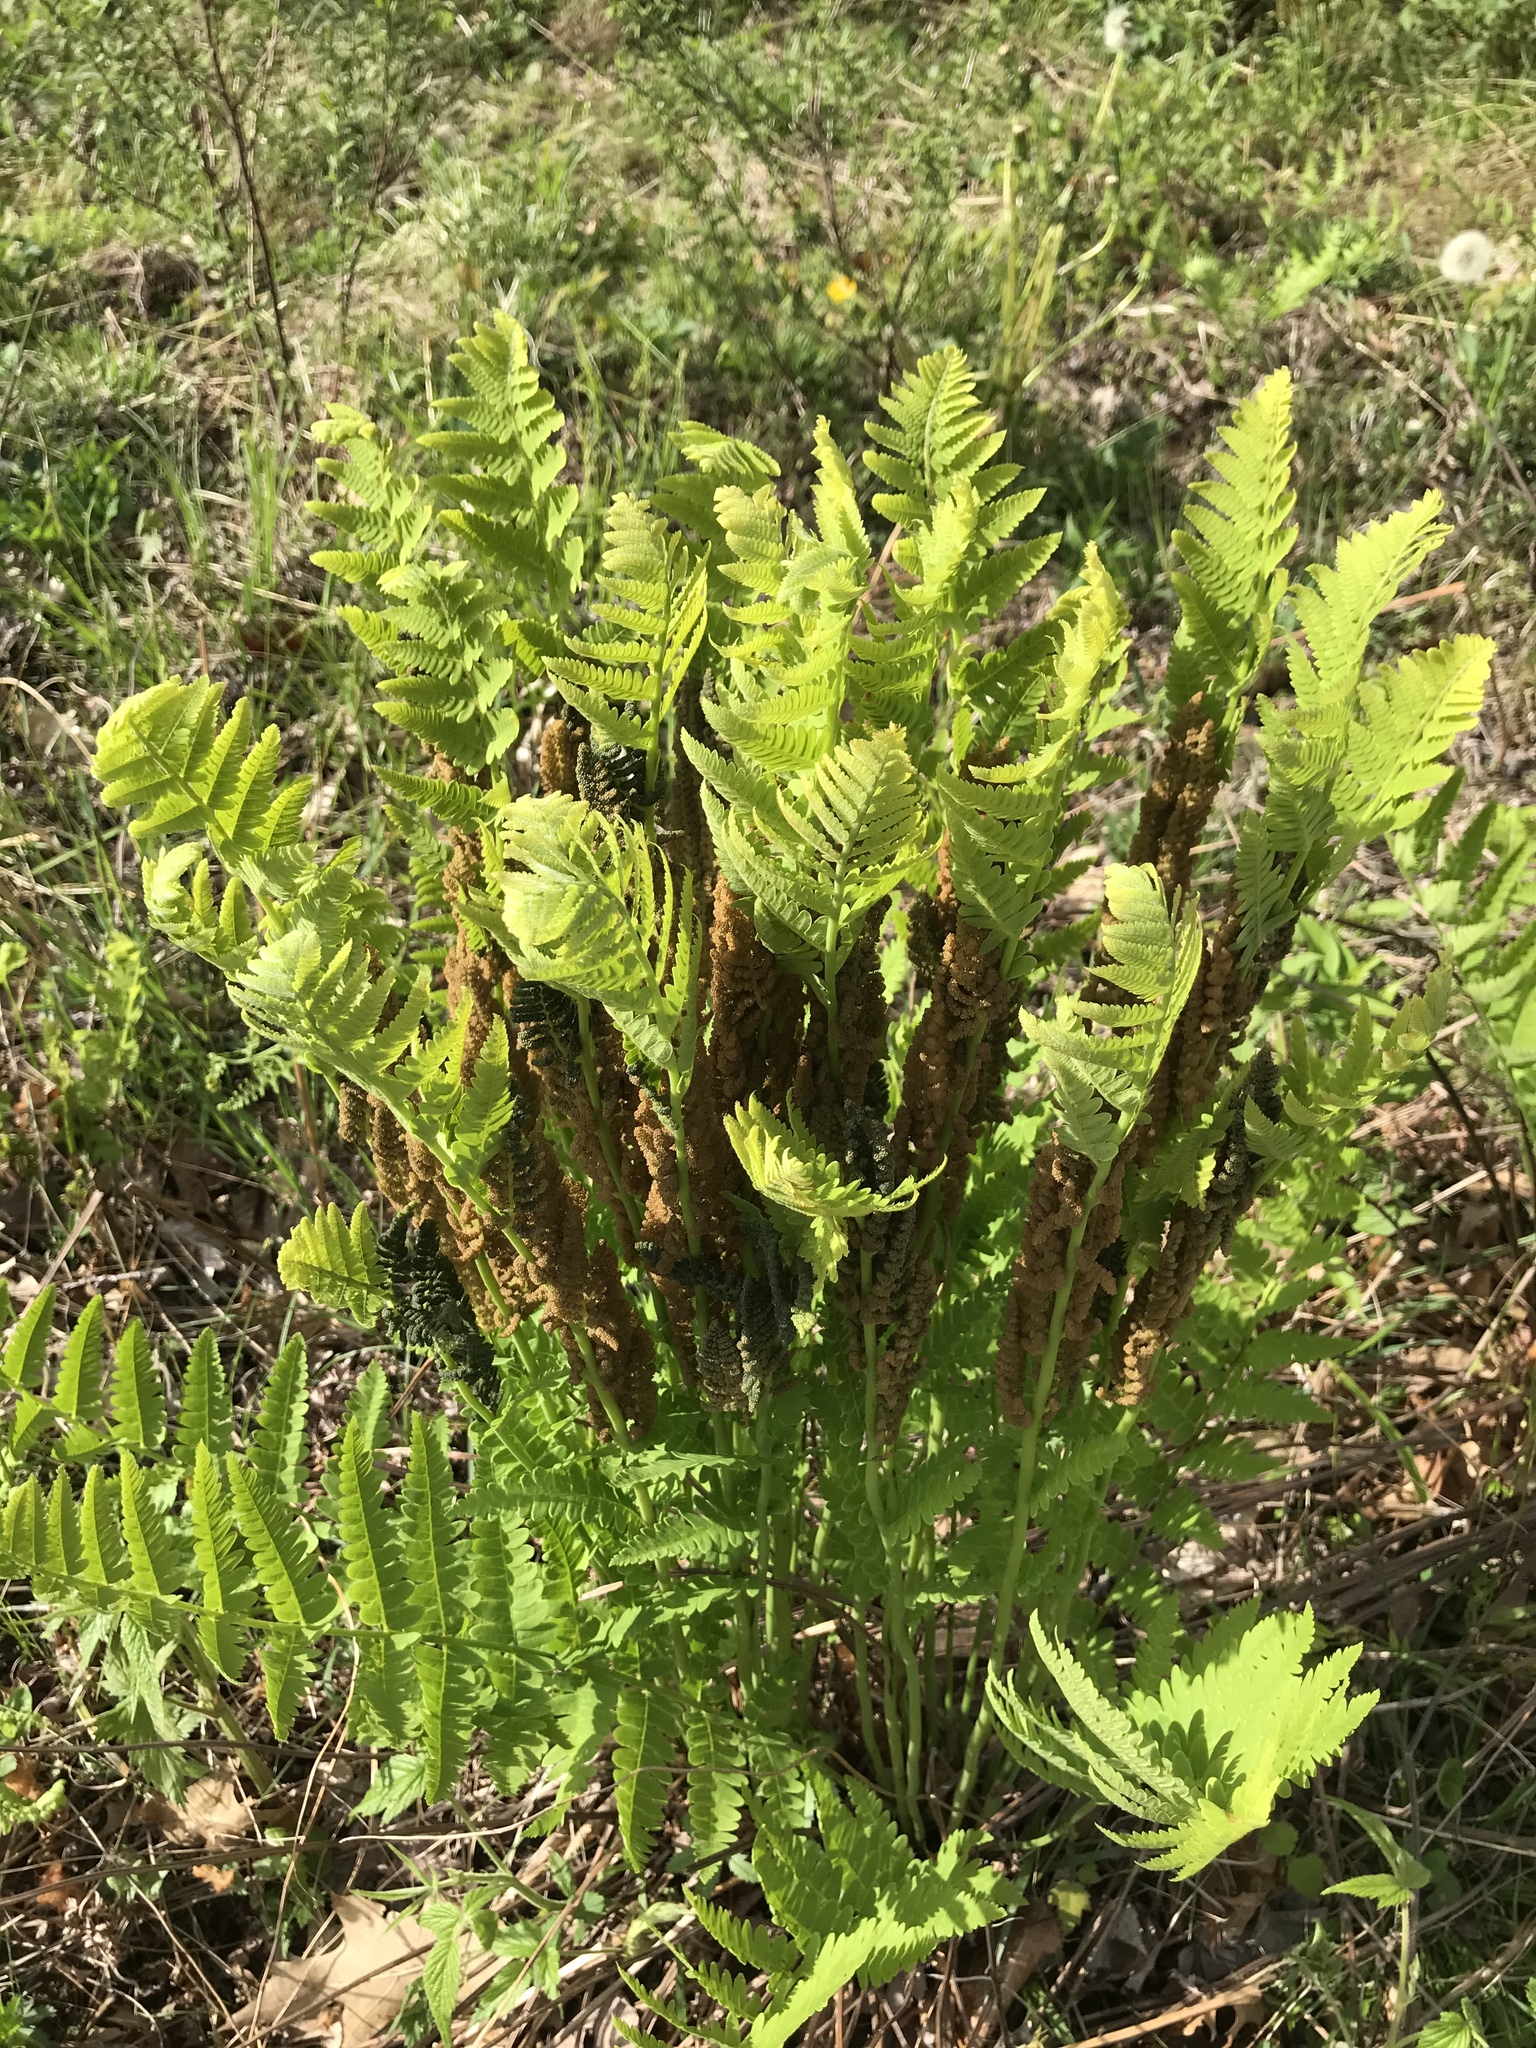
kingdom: Plantae
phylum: Tracheophyta
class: Polypodiopsida
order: Osmundales
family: Osmundaceae
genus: Claytosmunda
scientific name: Claytosmunda claytoniana
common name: Clayton's fern
